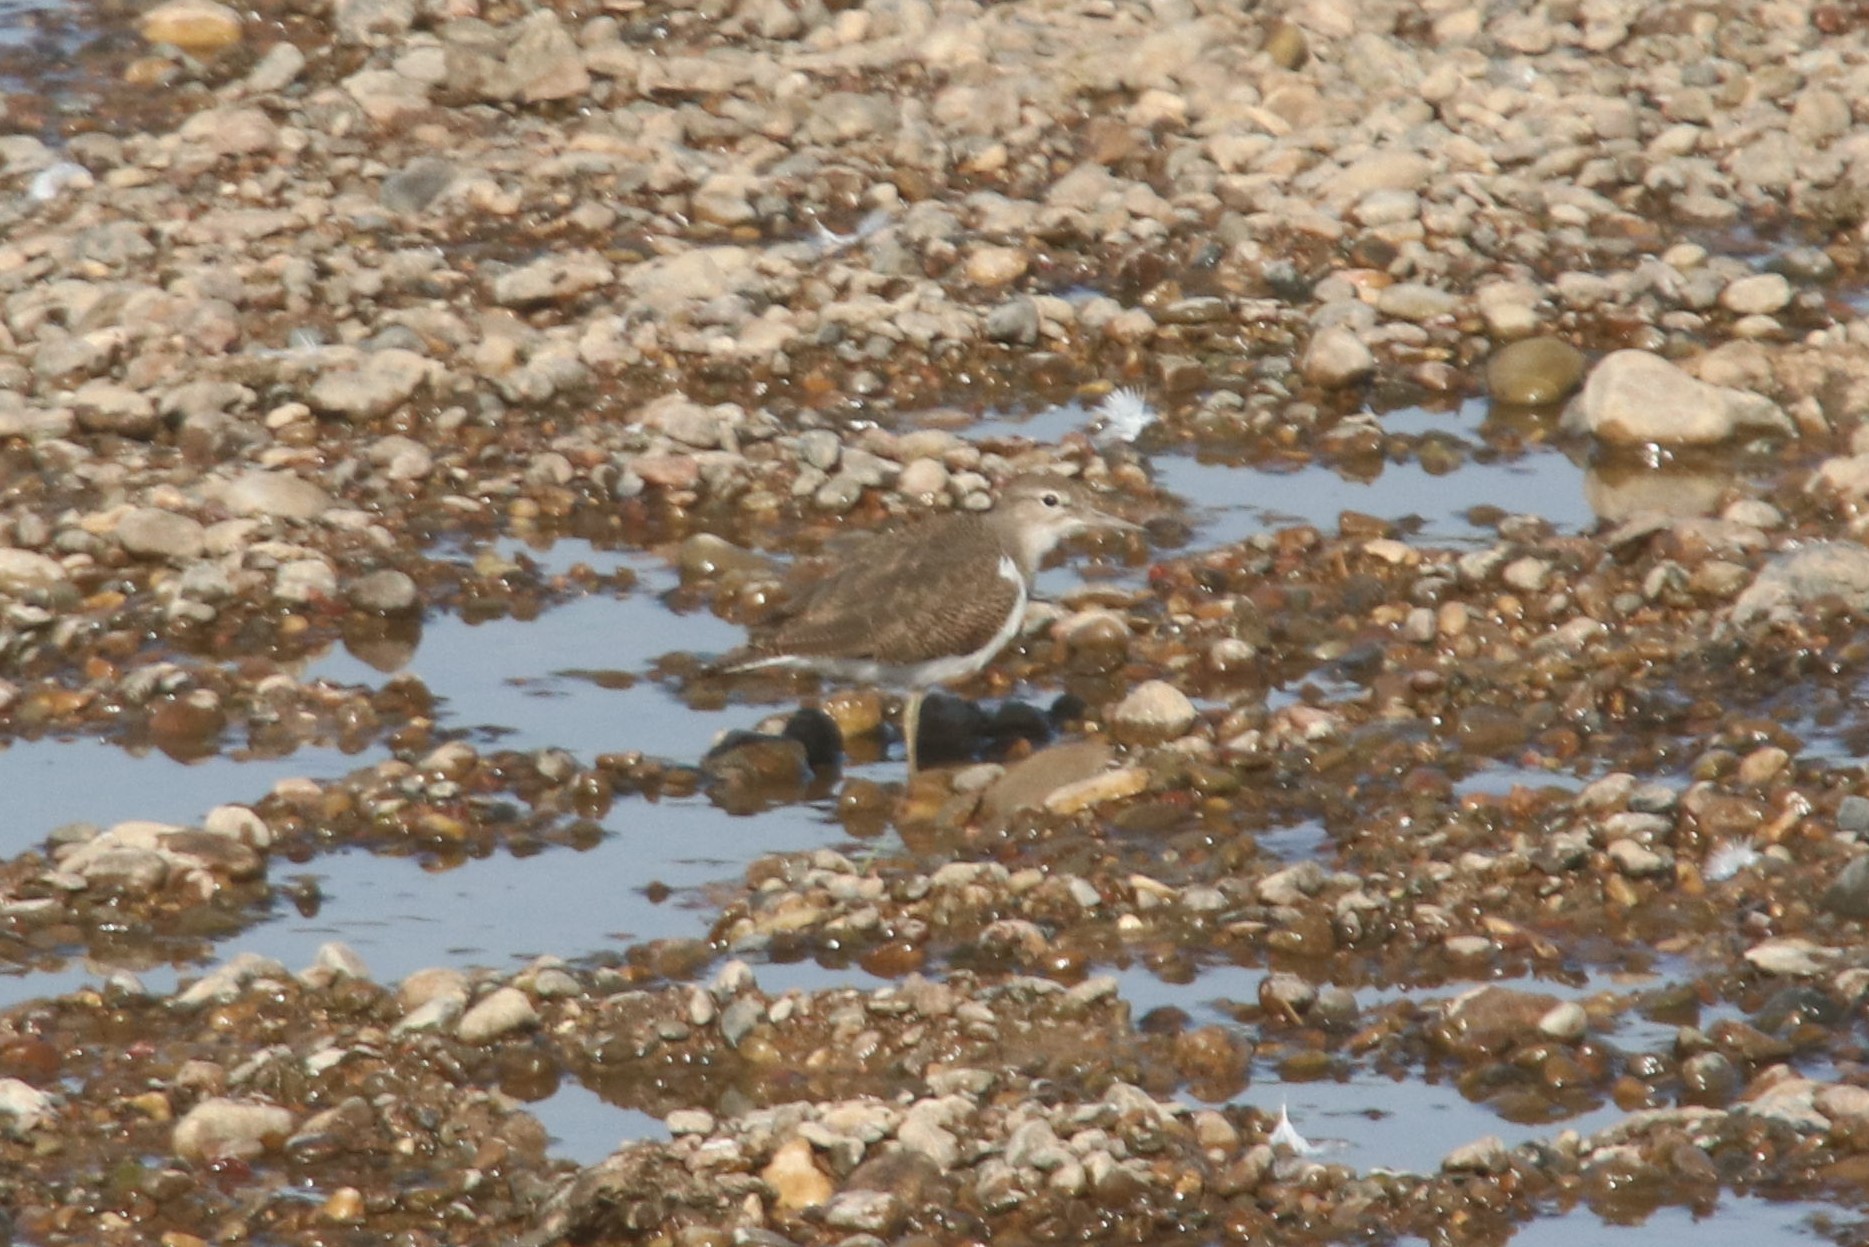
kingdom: Animalia
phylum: Chordata
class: Aves
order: Charadriiformes
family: Scolopacidae
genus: Actitis
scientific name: Actitis hypoleucos
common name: Common sandpiper
